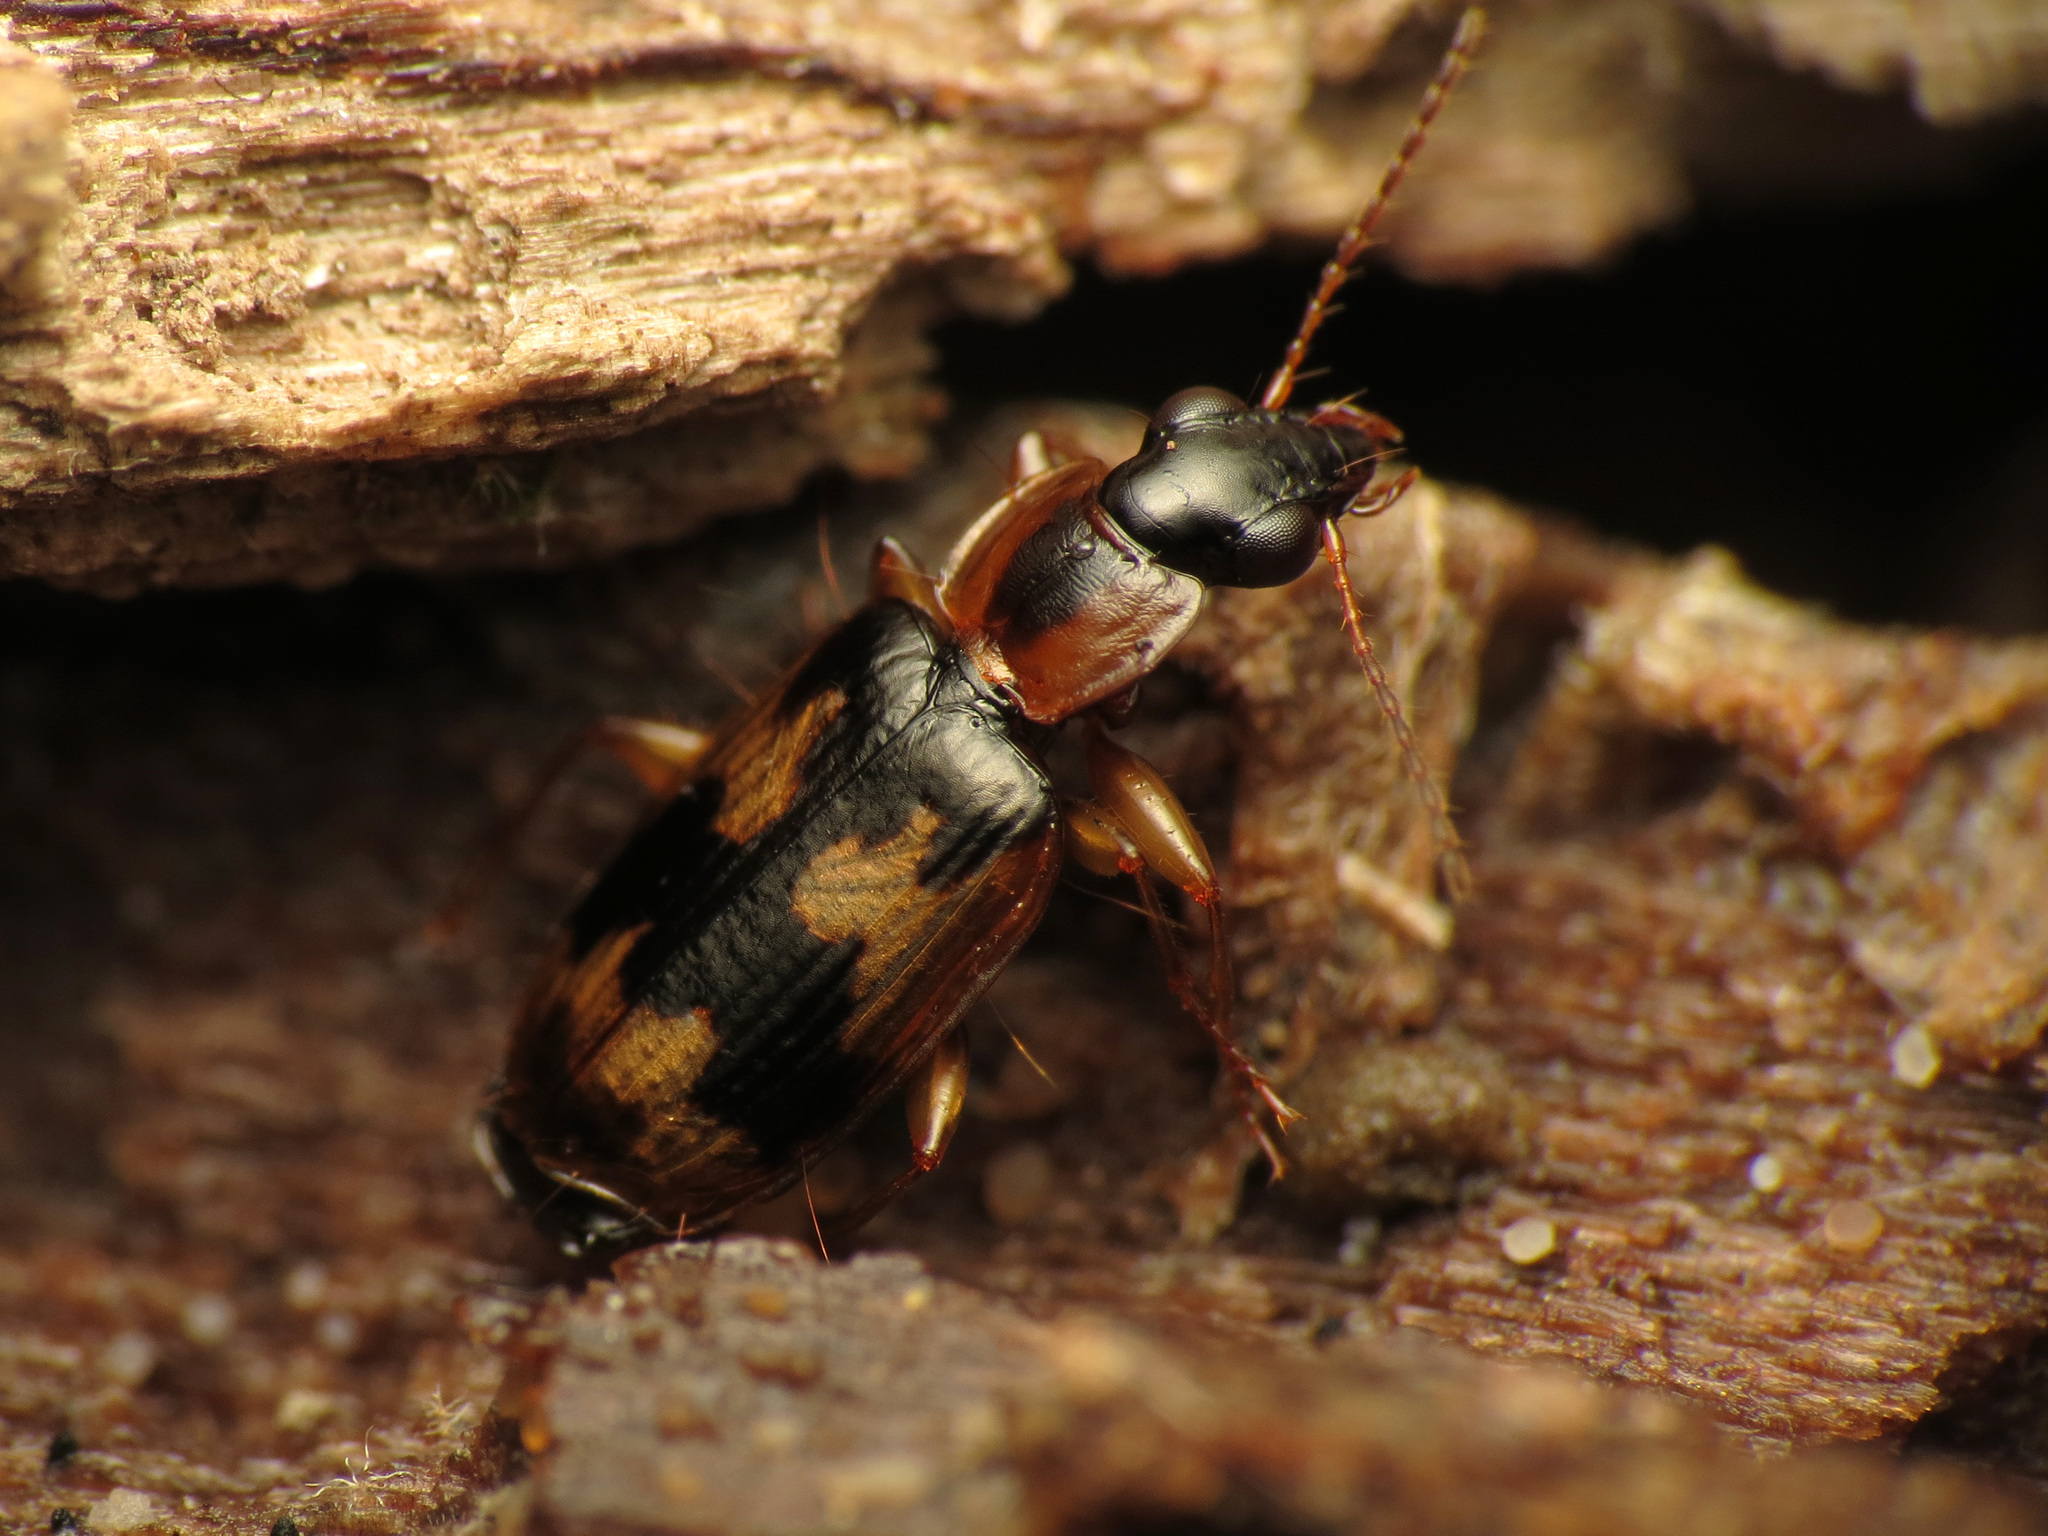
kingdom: Animalia
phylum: Arthropoda
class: Insecta
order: Coleoptera
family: Carabidae
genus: Phloeoxena
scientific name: Phloeoxena signata
